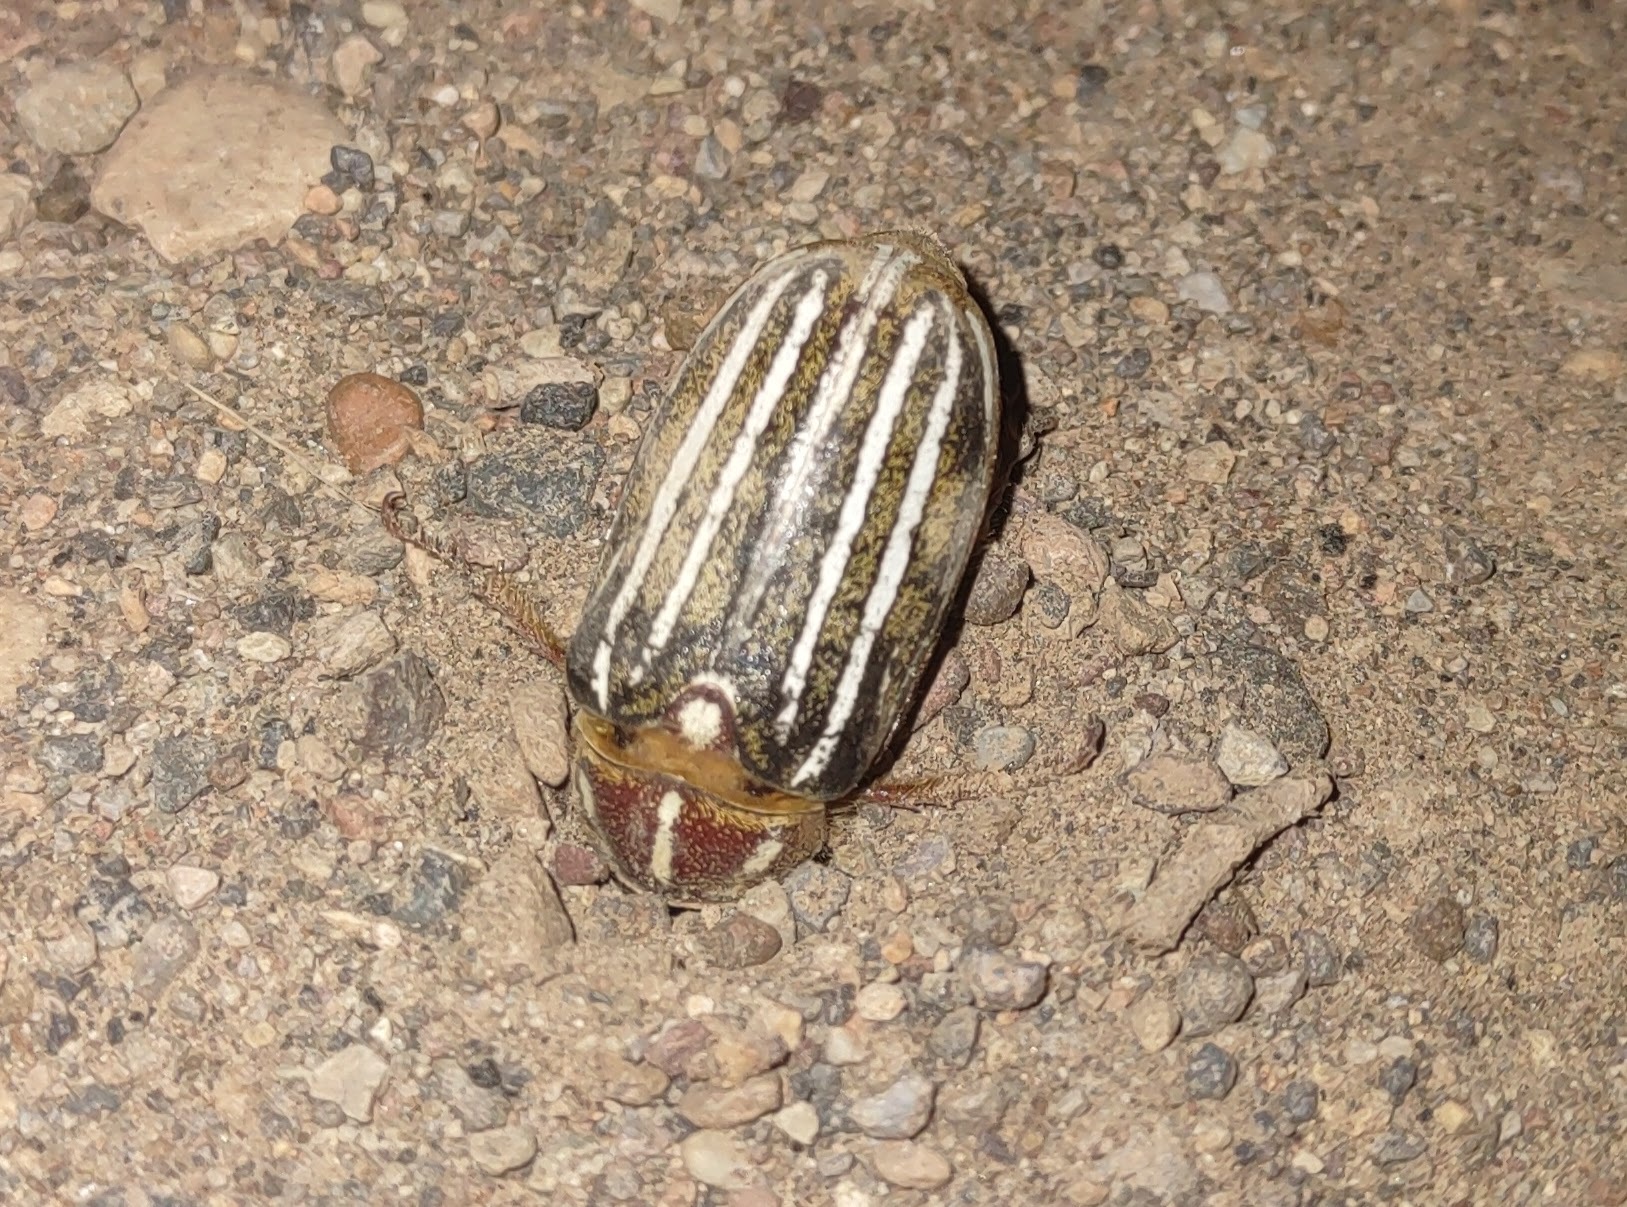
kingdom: Animalia
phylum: Arthropoda
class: Insecta
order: Coleoptera
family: Scarabaeidae
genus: Polyphylla
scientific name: Polyphylla decemlineata
